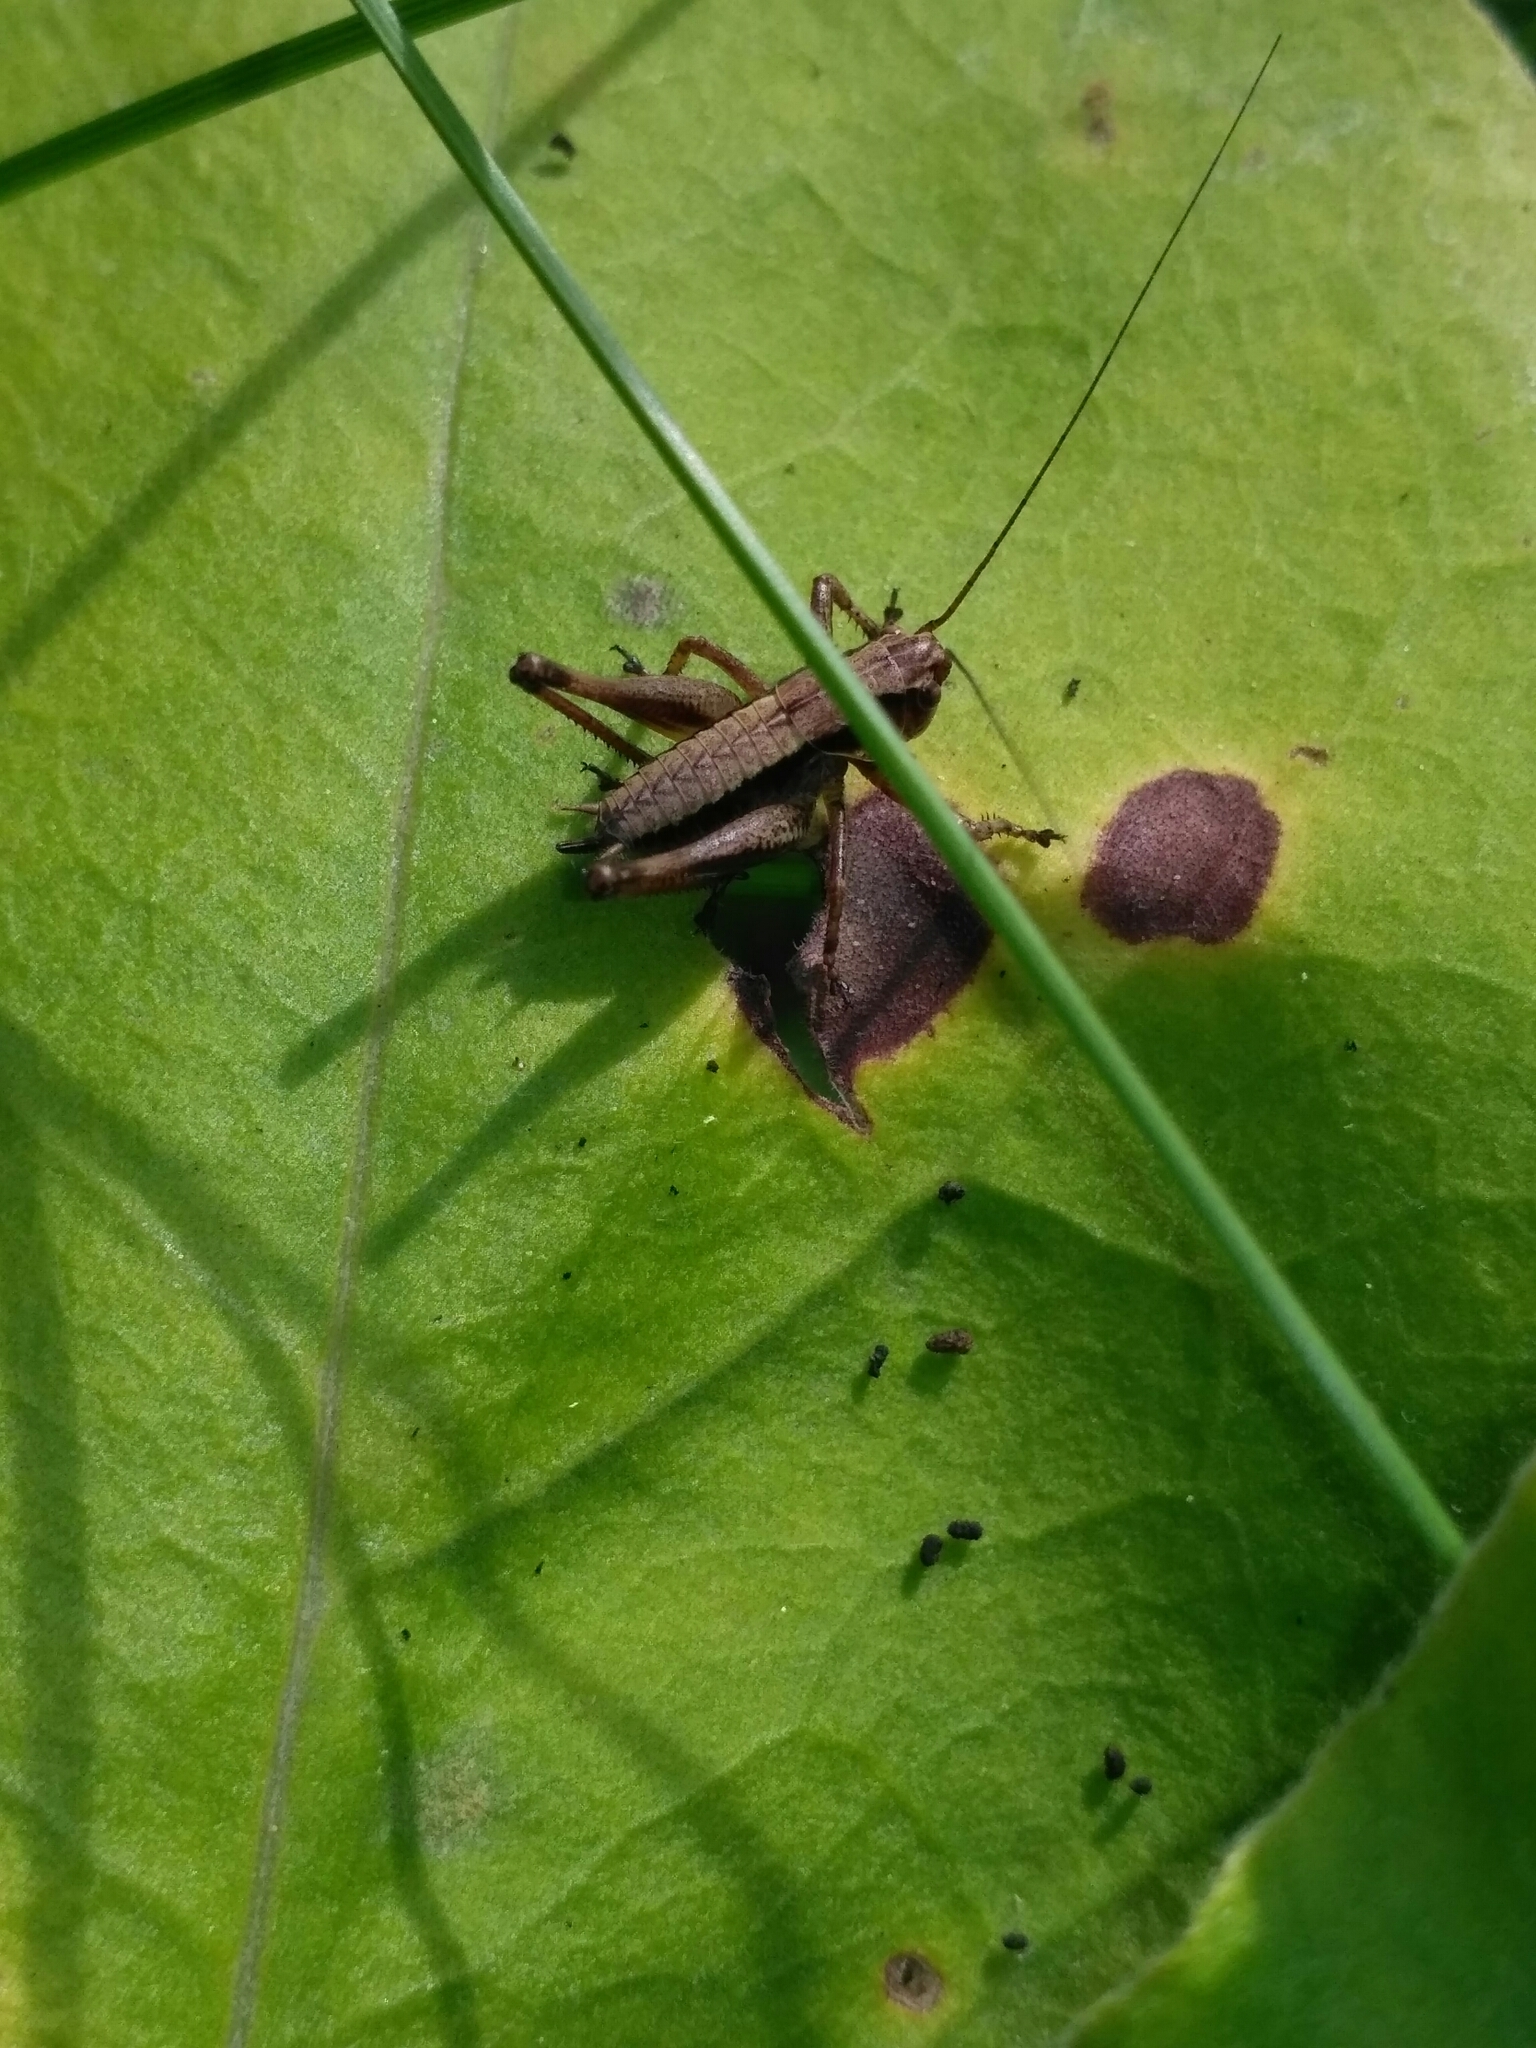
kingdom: Animalia
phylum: Arthropoda
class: Insecta
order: Orthoptera
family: Tettigoniidae
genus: Pholidoptera
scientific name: Pholidoptera griseoaptera
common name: Dark bush-cricket
